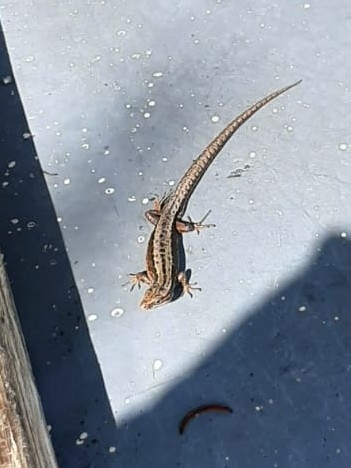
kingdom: Animalia
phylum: Chordata
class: Squamata
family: Lacertidae
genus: Zootoca
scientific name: Zootoca vivipara
